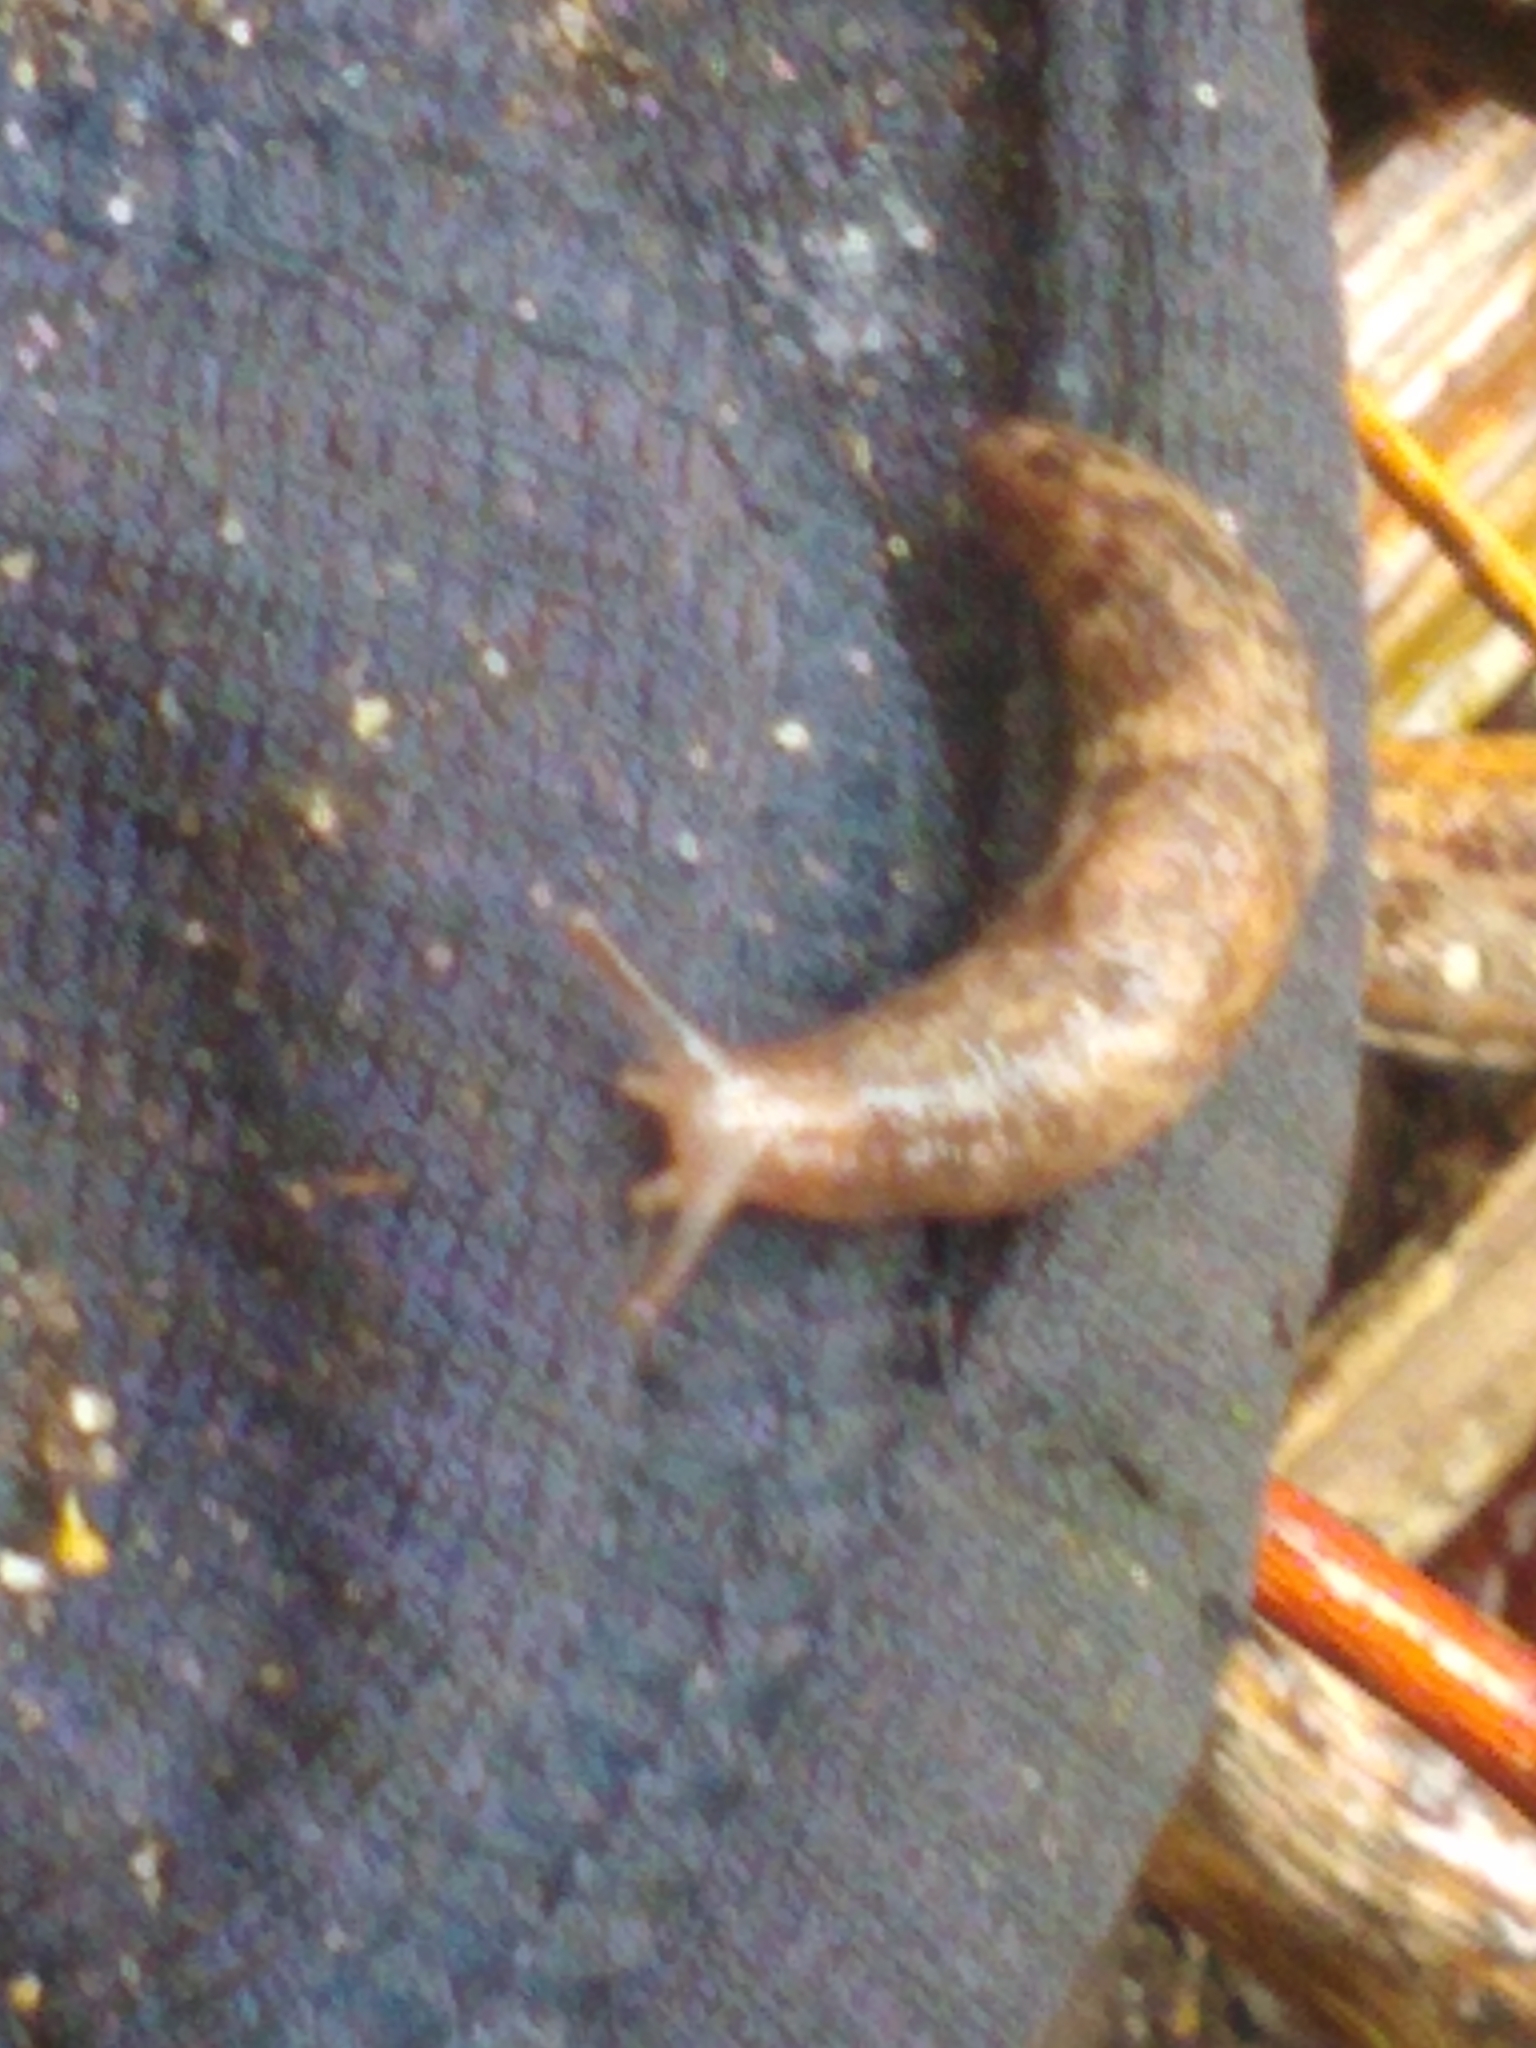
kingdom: Animalia
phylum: Mollusca
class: Gastropoda
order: Stylommatophora
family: Agriolimacidae
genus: Deroceras
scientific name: Deroceras reticulatum
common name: Gray field slug
